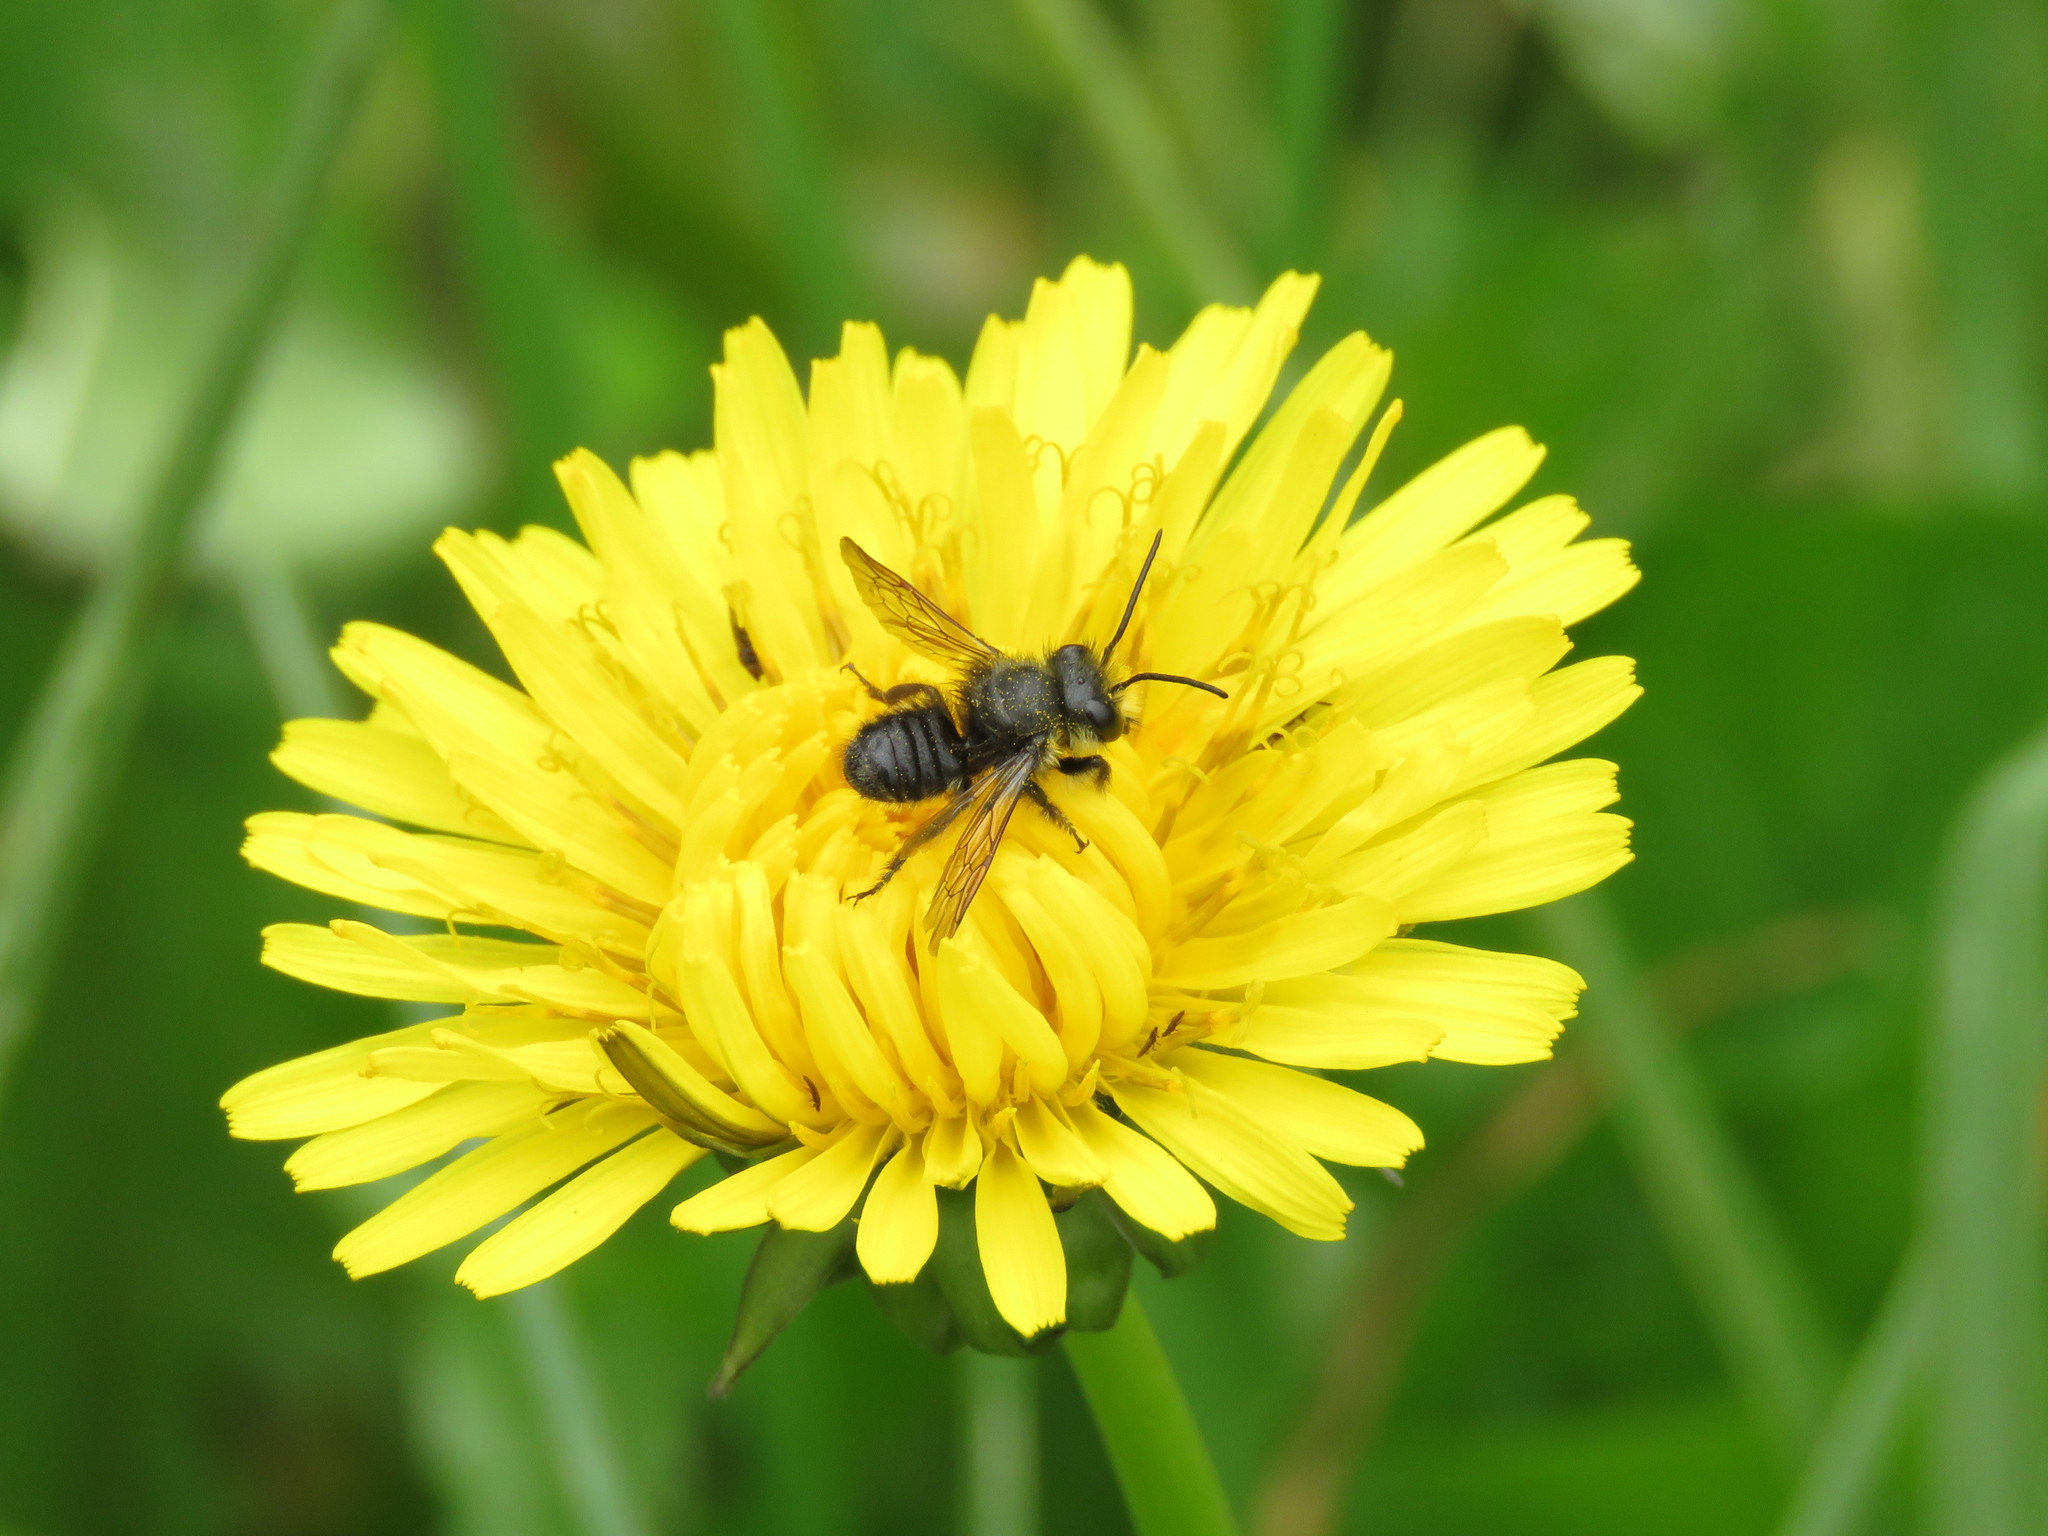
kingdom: Animalia
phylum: Arthropoda
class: Insecta
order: Hymenoptera
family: Megachilidae
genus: Megachile
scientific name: Megachile amparo
